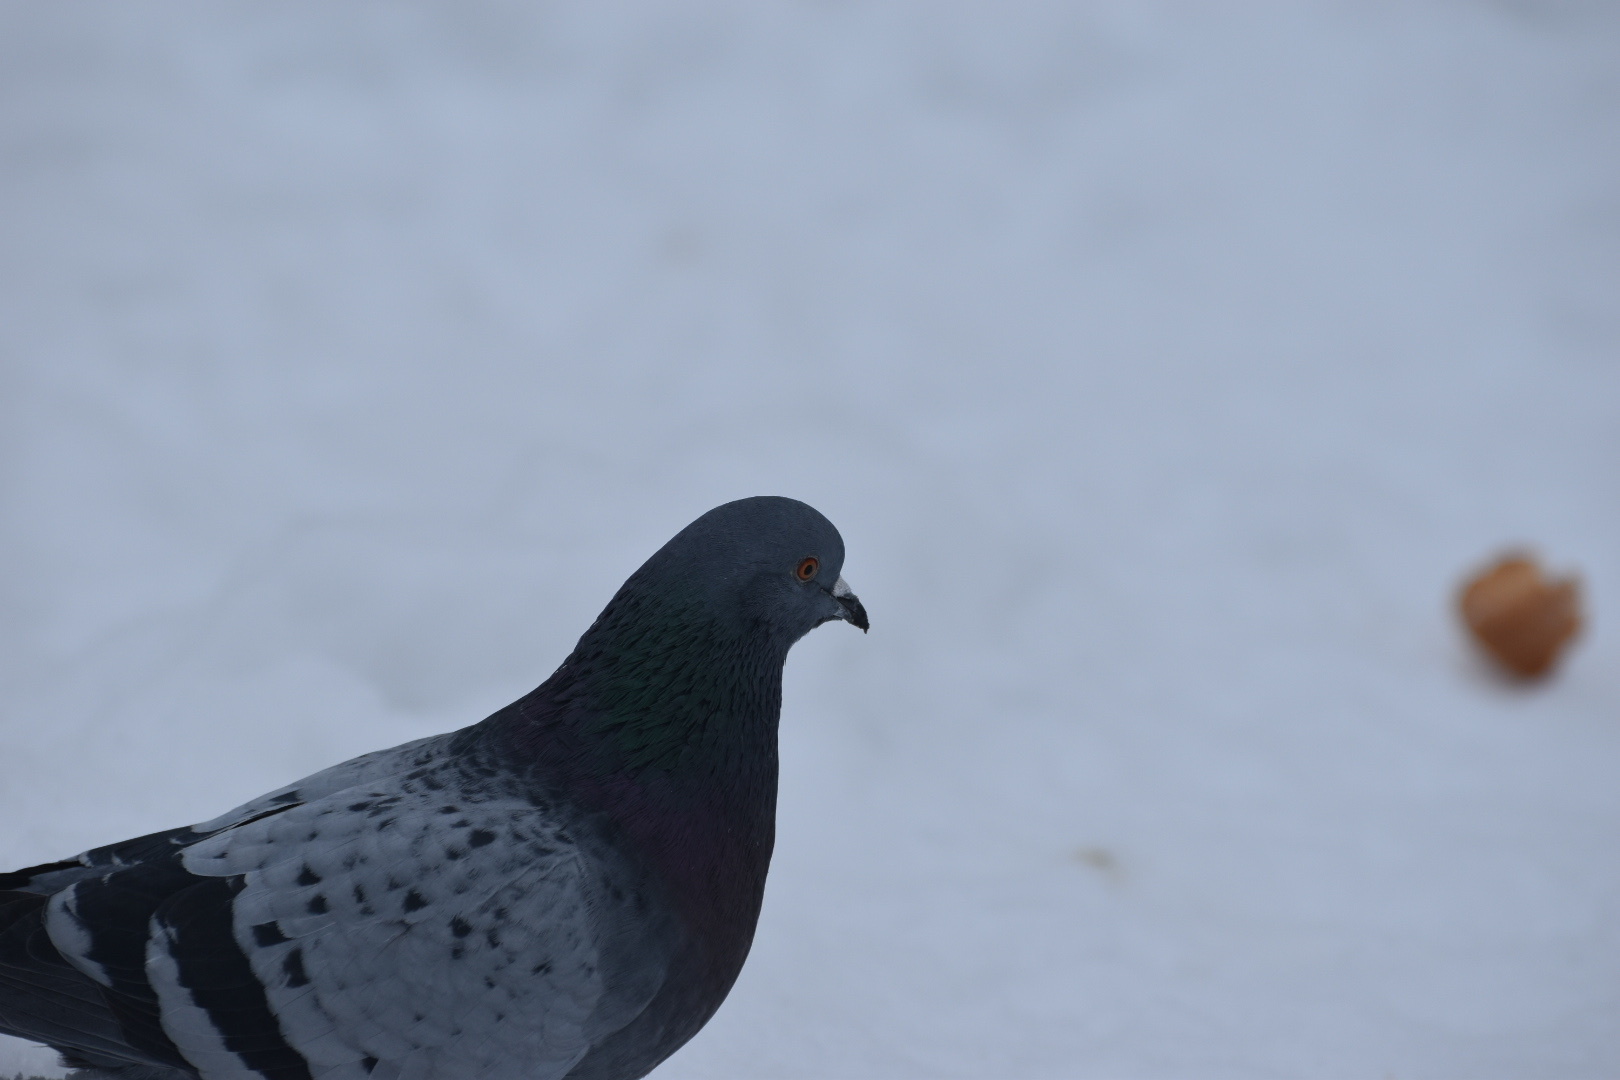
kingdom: Animalia
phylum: Chordata
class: Aves
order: Columbiformes
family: Columbidae
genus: Columba
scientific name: Columba livia
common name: Rock pigeon
